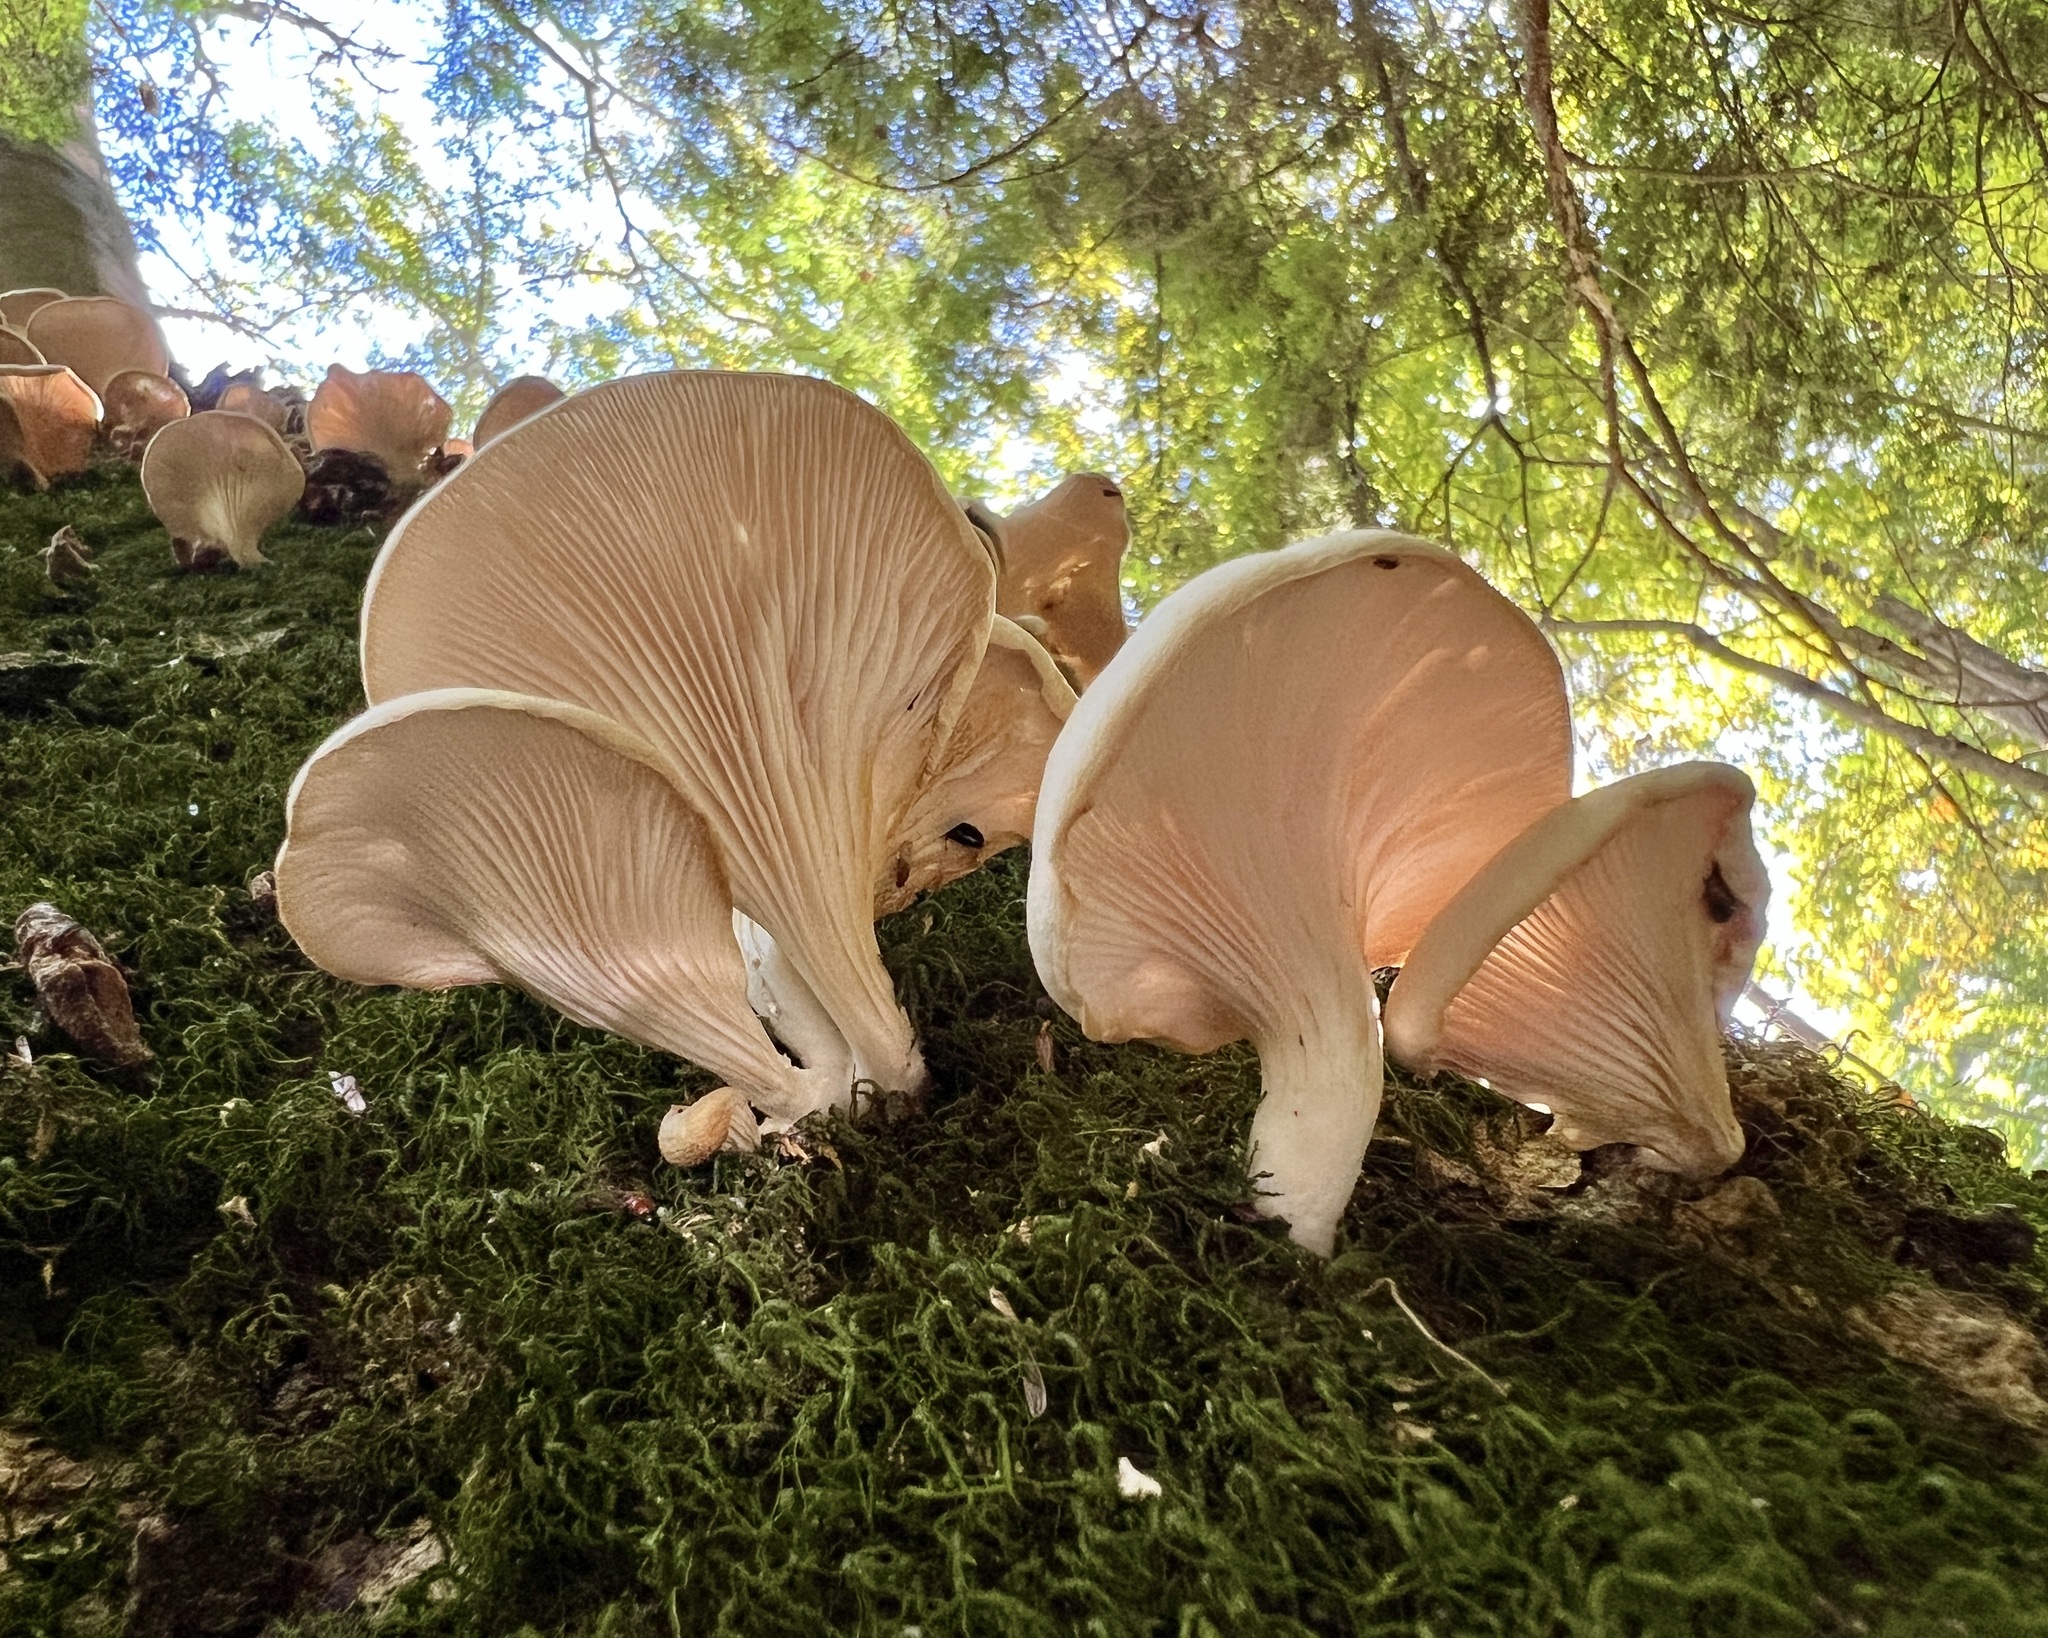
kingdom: Fungi
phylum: Basidiomycota
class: Agaricomycetes
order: Agaricales
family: Pleurotaceae
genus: Pleurotus
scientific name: Pleurotus pulmonarius
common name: Pale oyster
